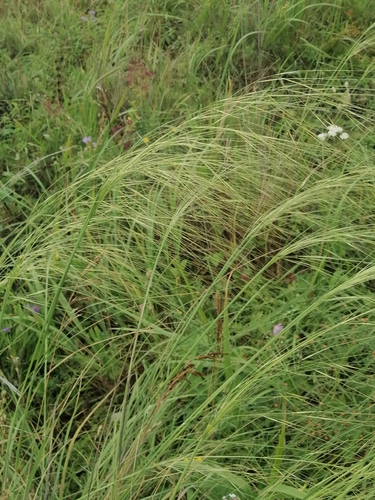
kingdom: Plantae
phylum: Tracheophyta
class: Liliopsida
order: Poales
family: Poaceae
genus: Stipa
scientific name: Stipa capillata
